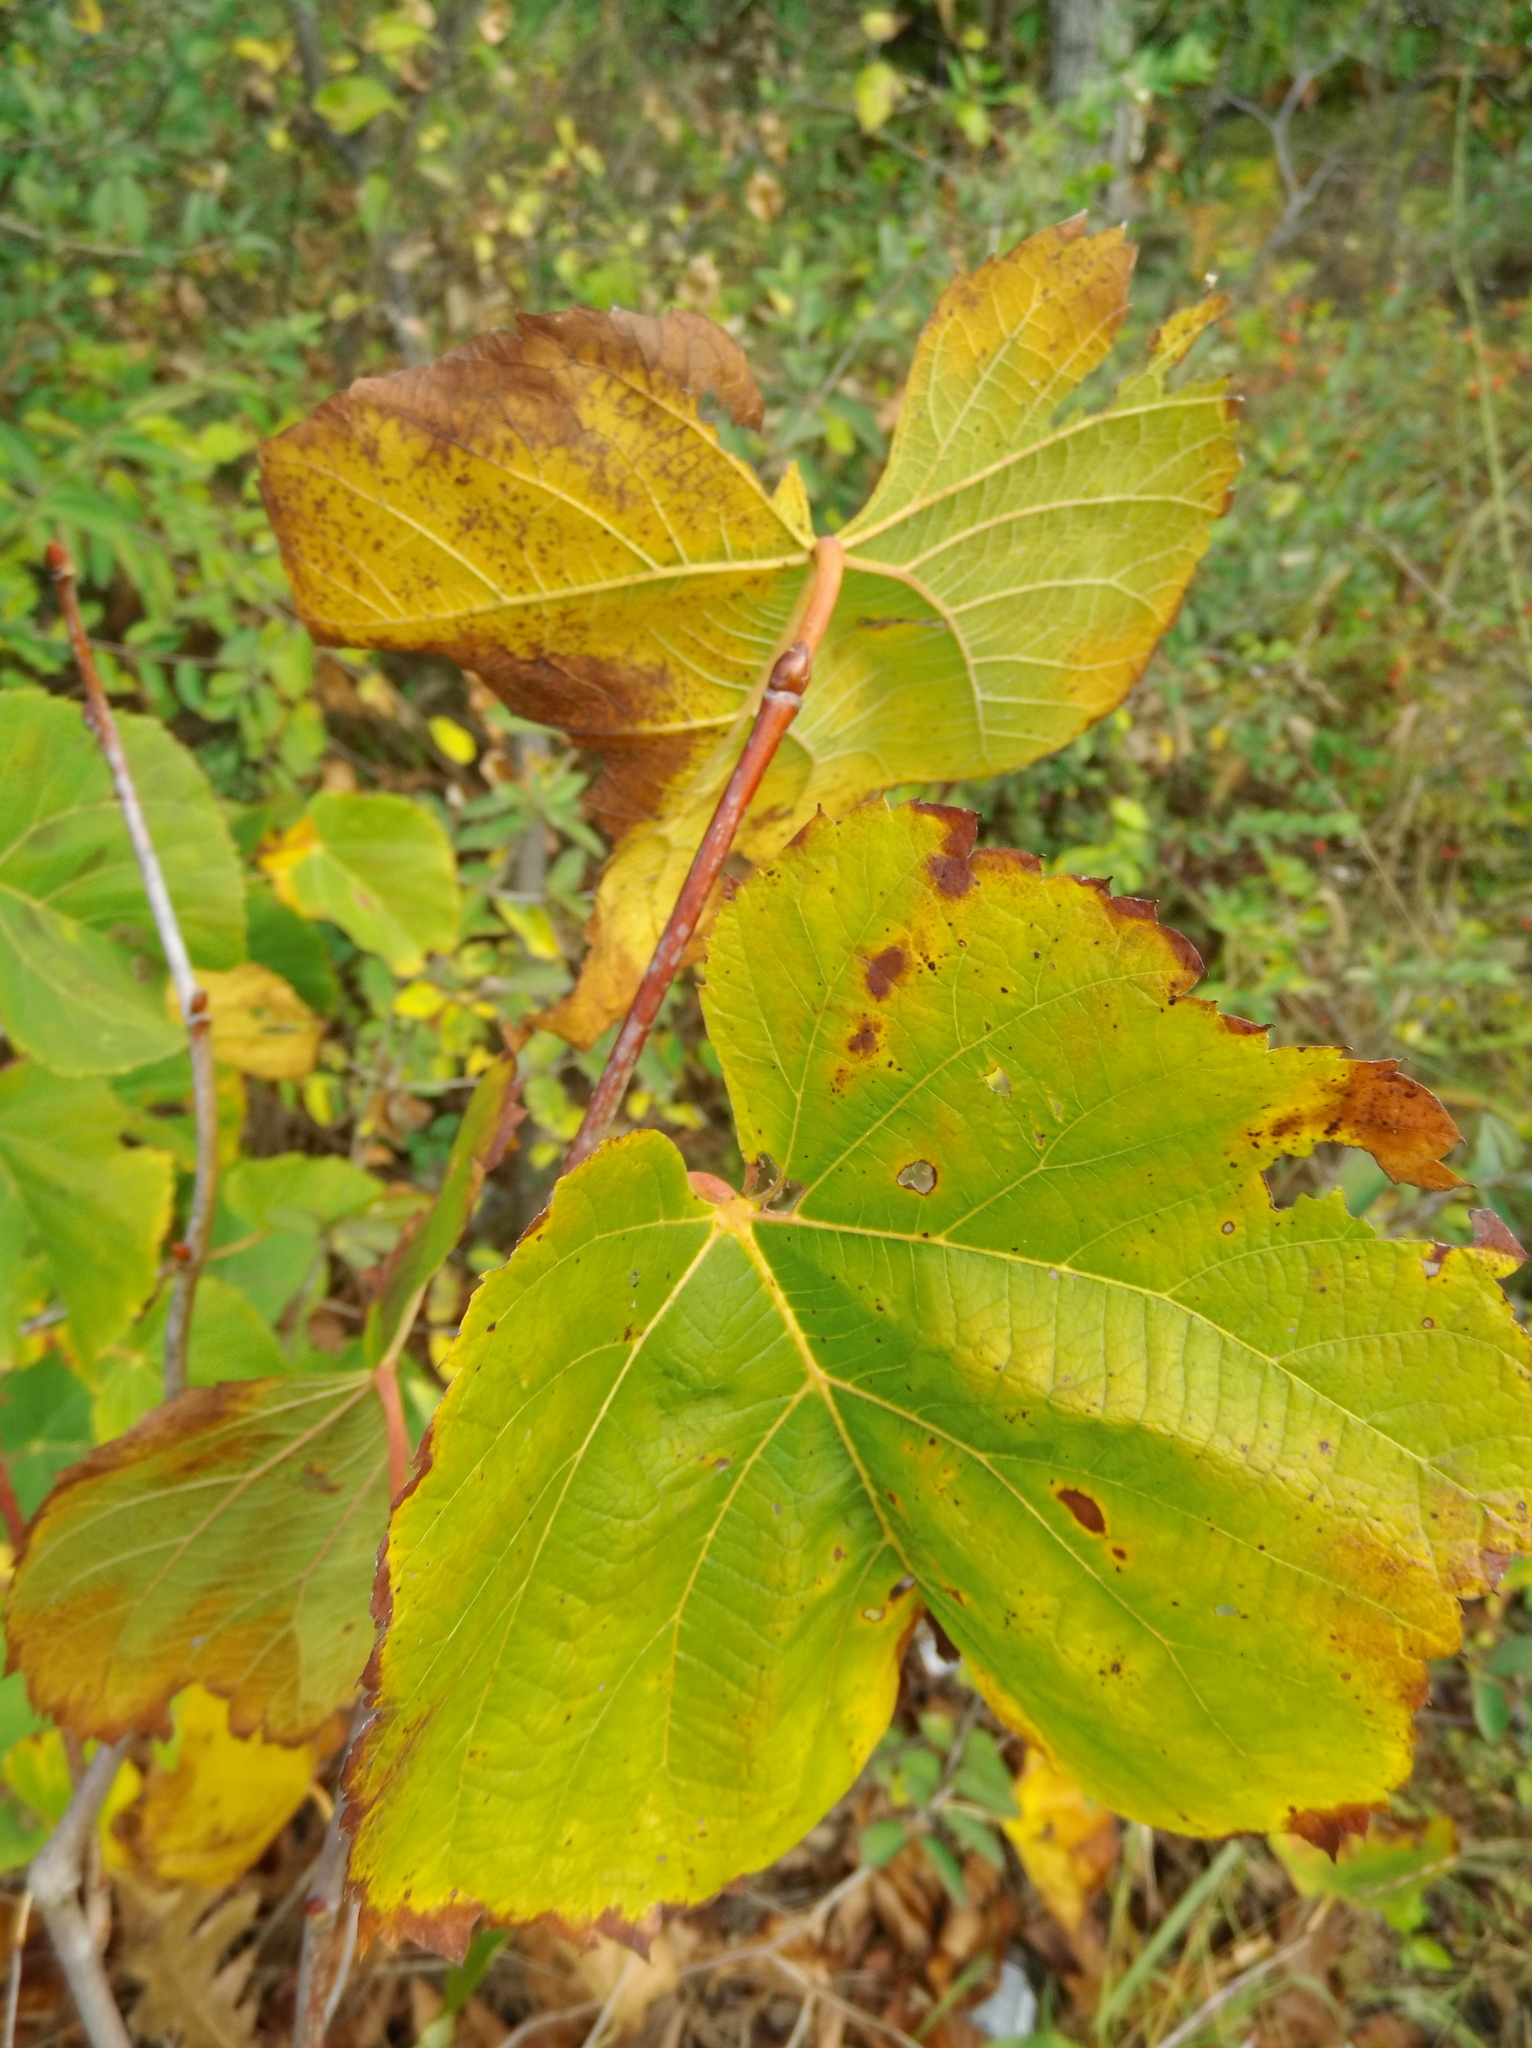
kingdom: Plantae
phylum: Tracheophyta
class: Magnoliopsida
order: Malvales
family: Malvaceae
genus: Tilia
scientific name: Tilia americana
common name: Basswood
